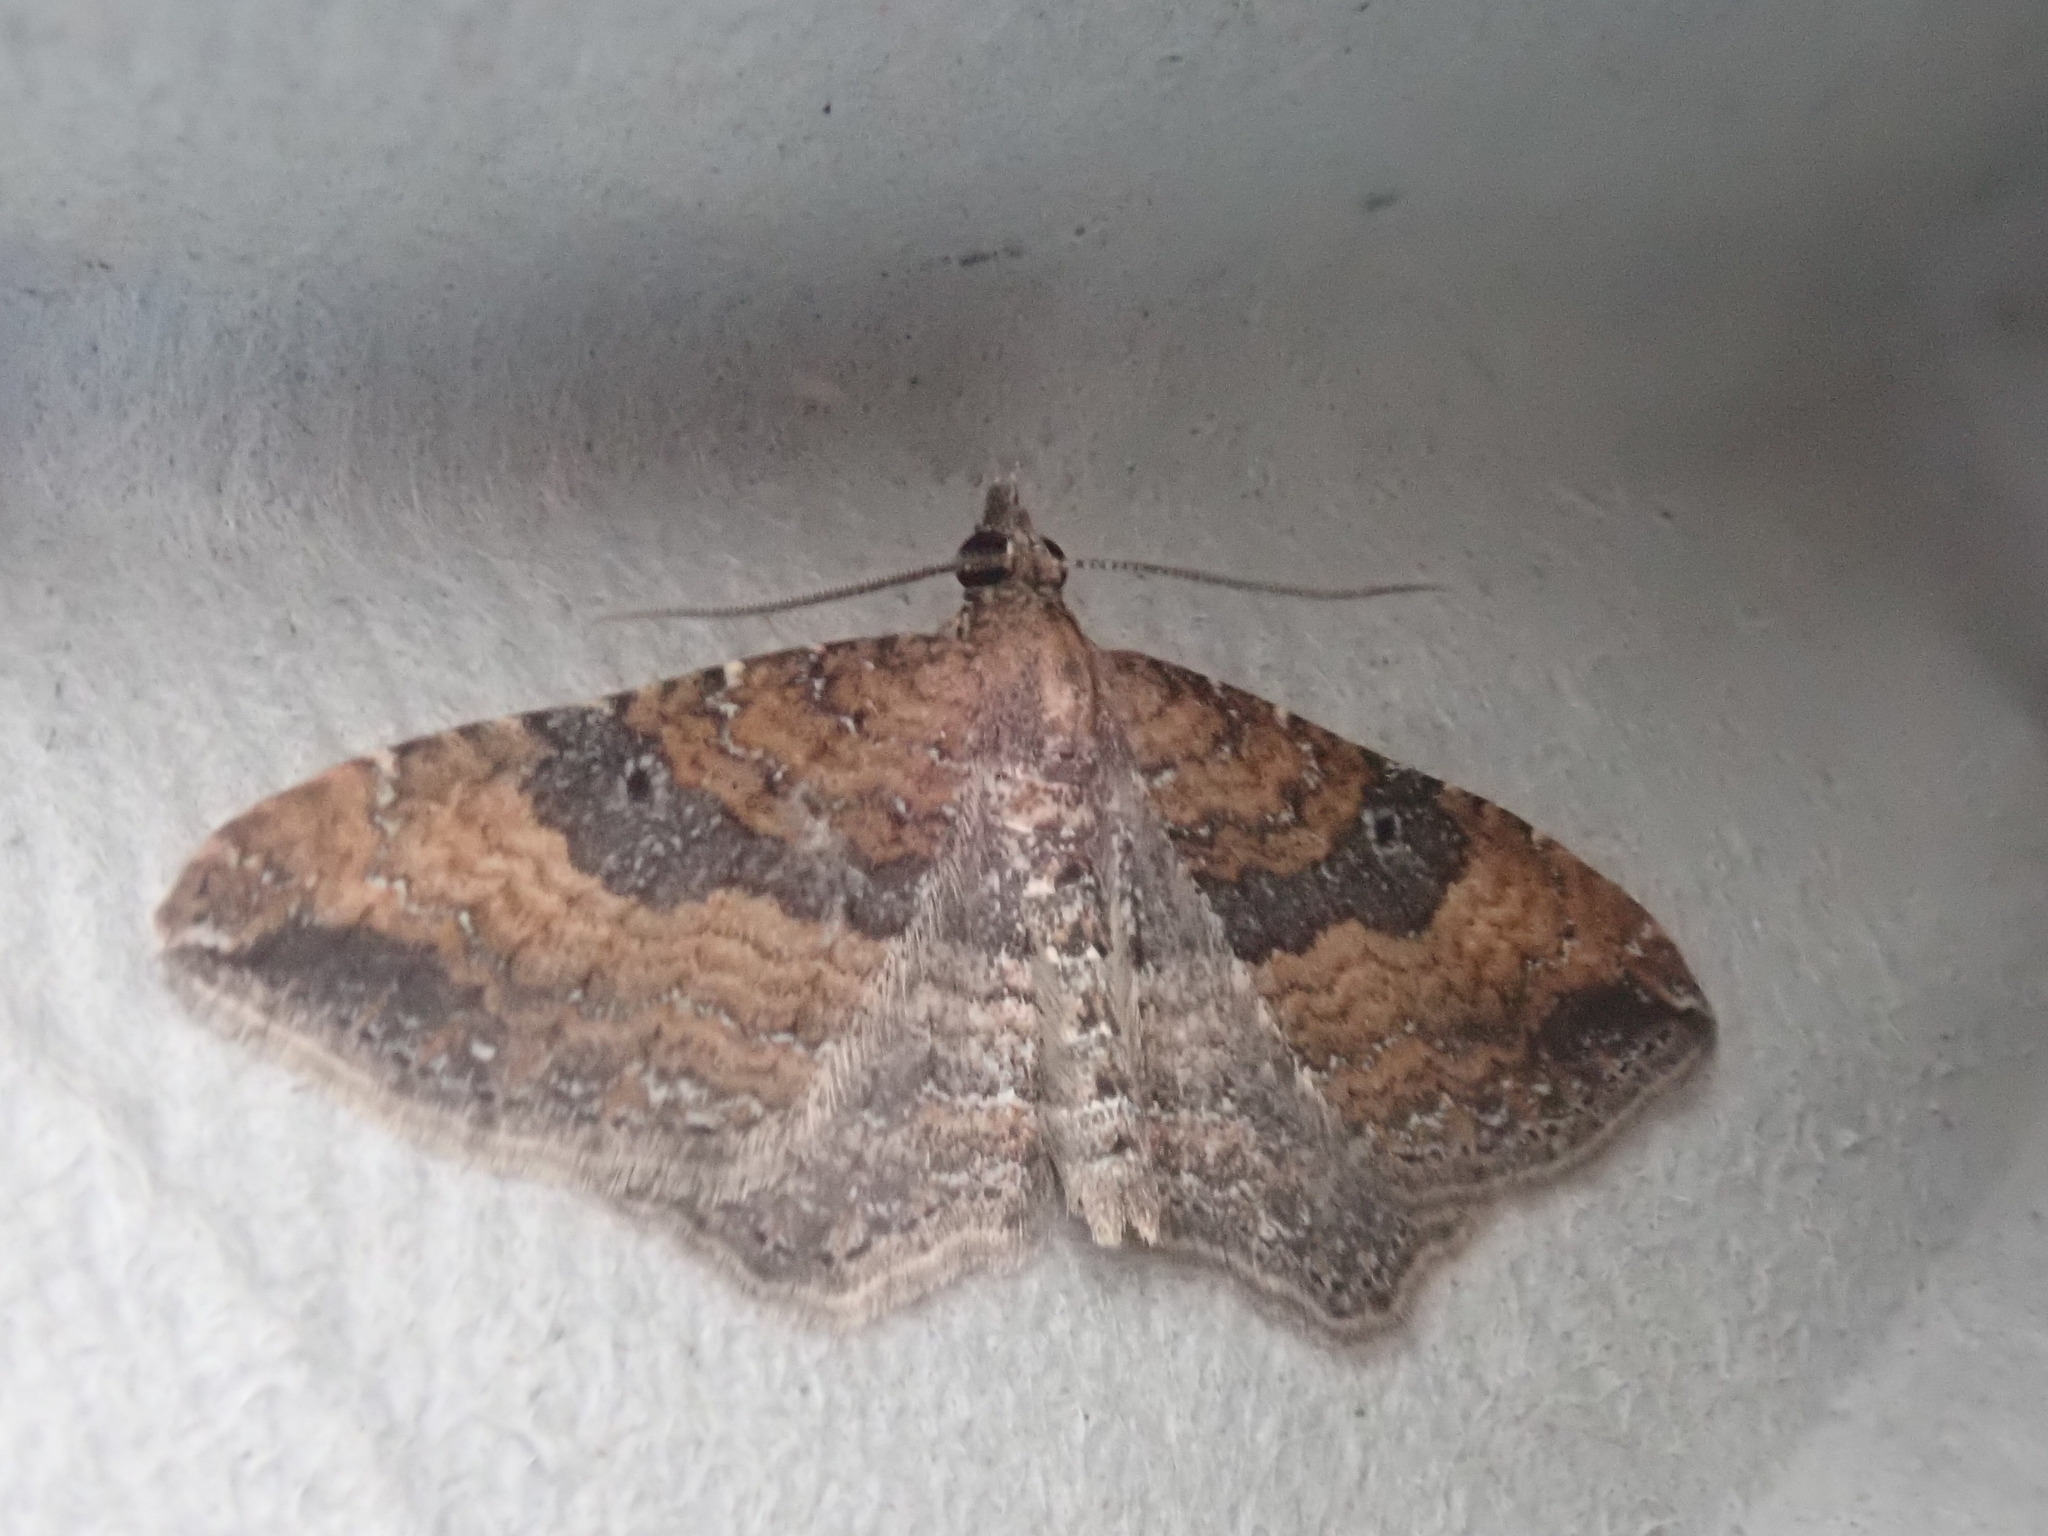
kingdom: Animalia
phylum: Arthropoda
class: Insecta
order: Lepidoptera
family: Geometridae
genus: Orthonama
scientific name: Orthonama obstipata
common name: The gem
